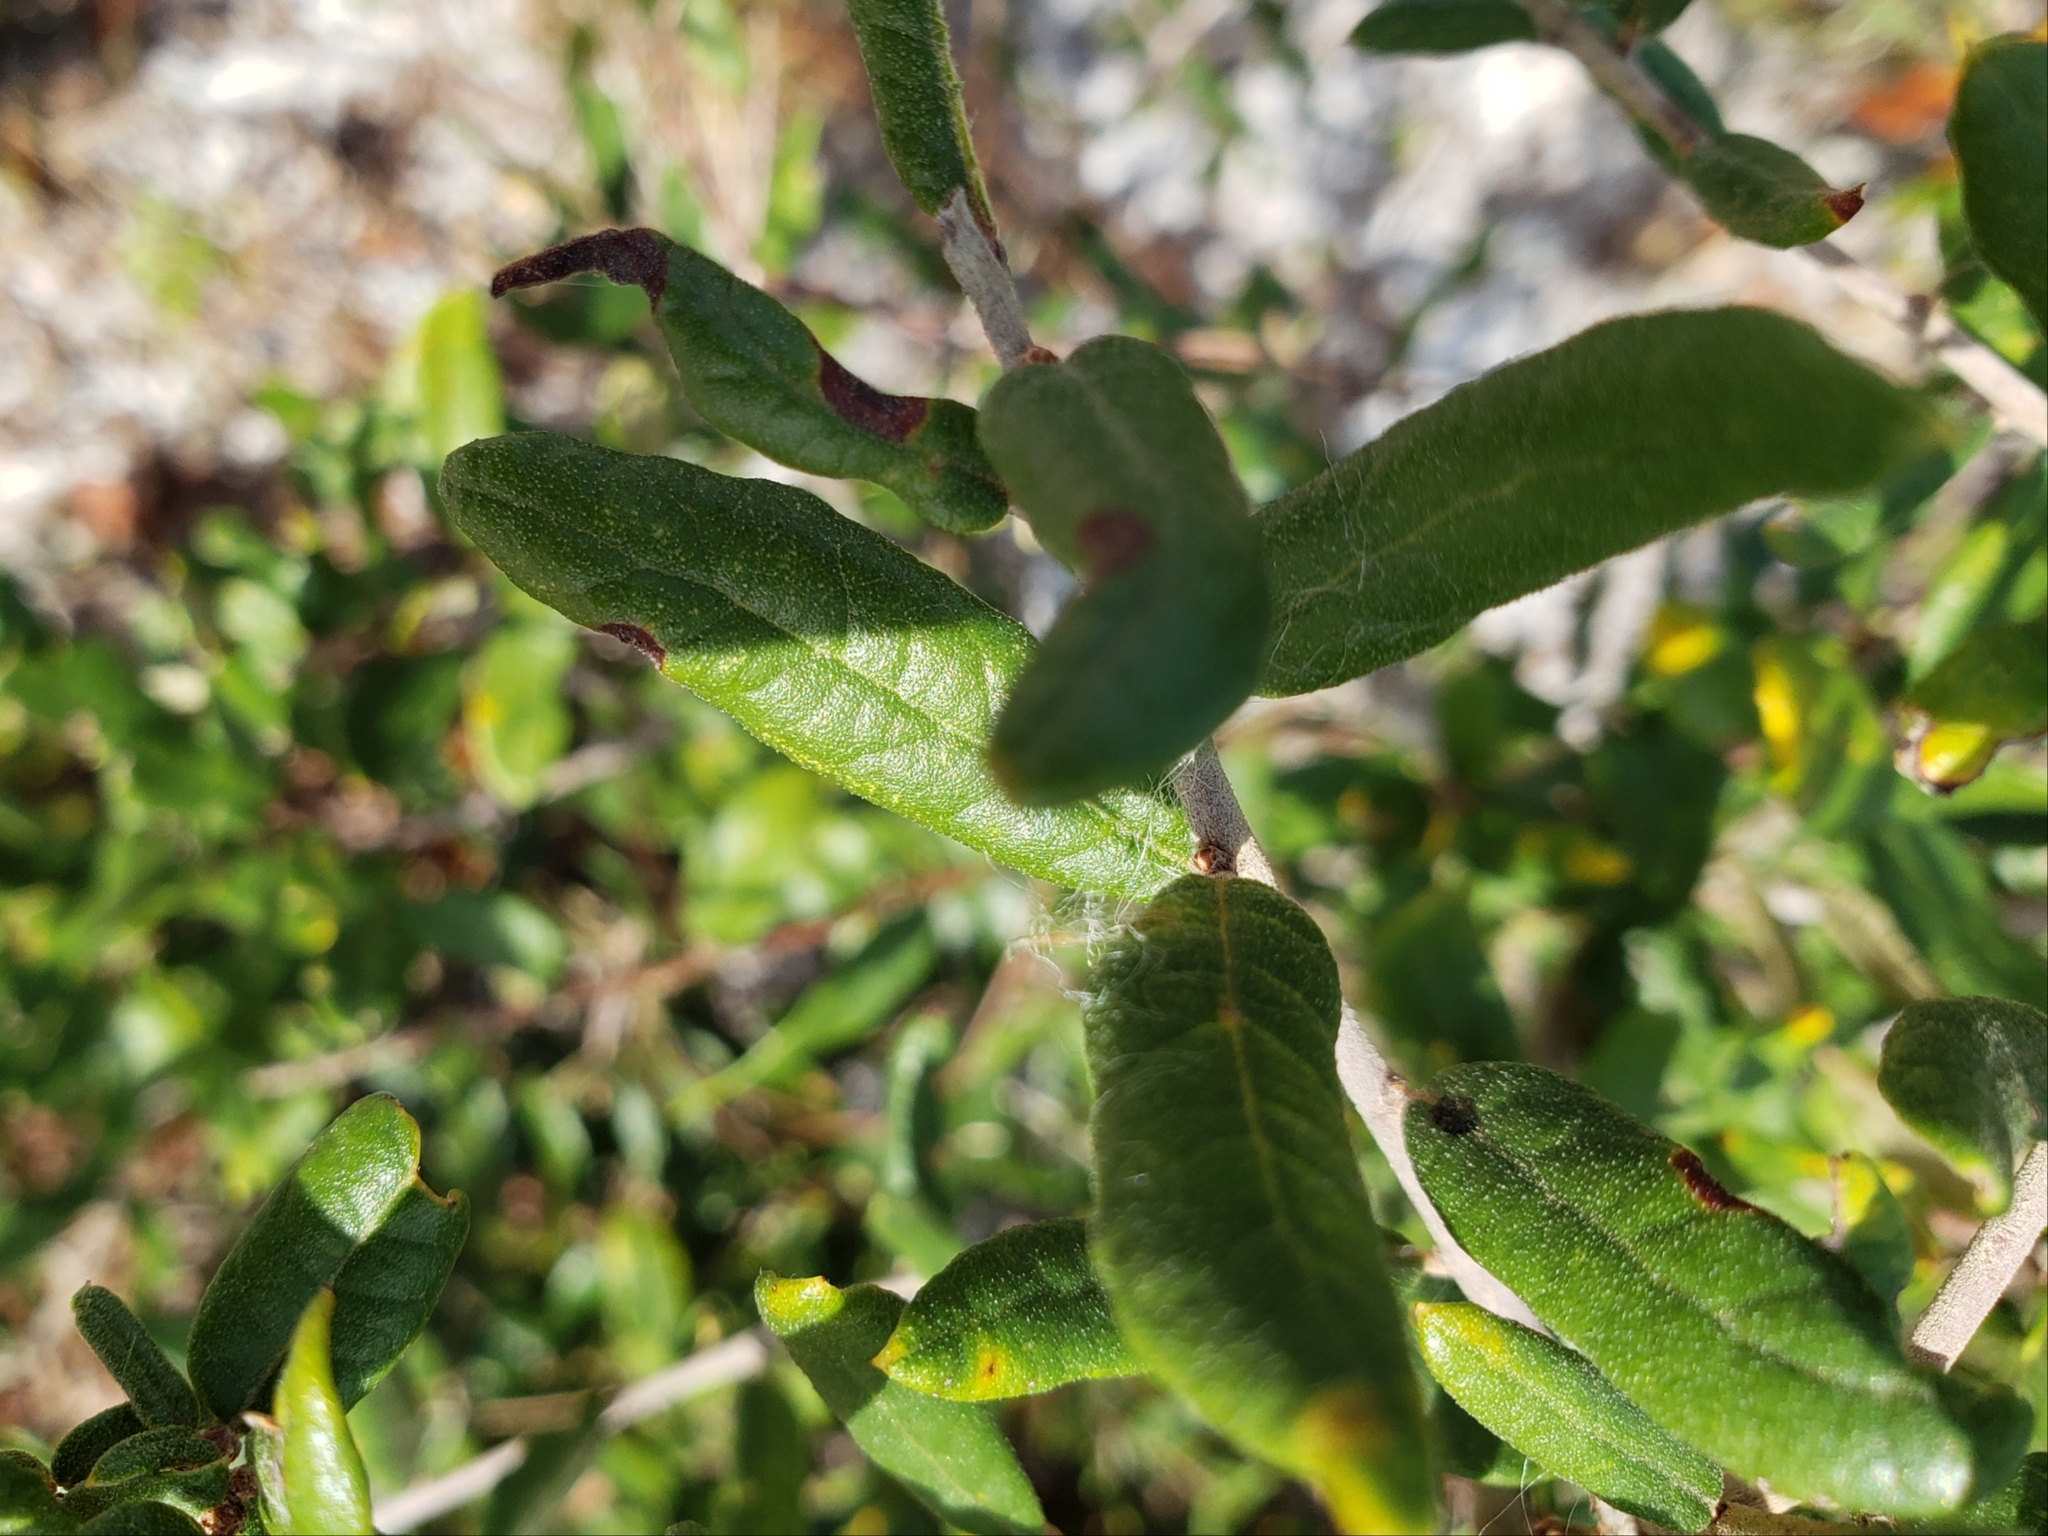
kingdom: Plantae
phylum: Tracheophyta
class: Magnoliopsida
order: Fagales
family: Fagaceae
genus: Quercus
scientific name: Quercus geminata
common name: Sand live oak
